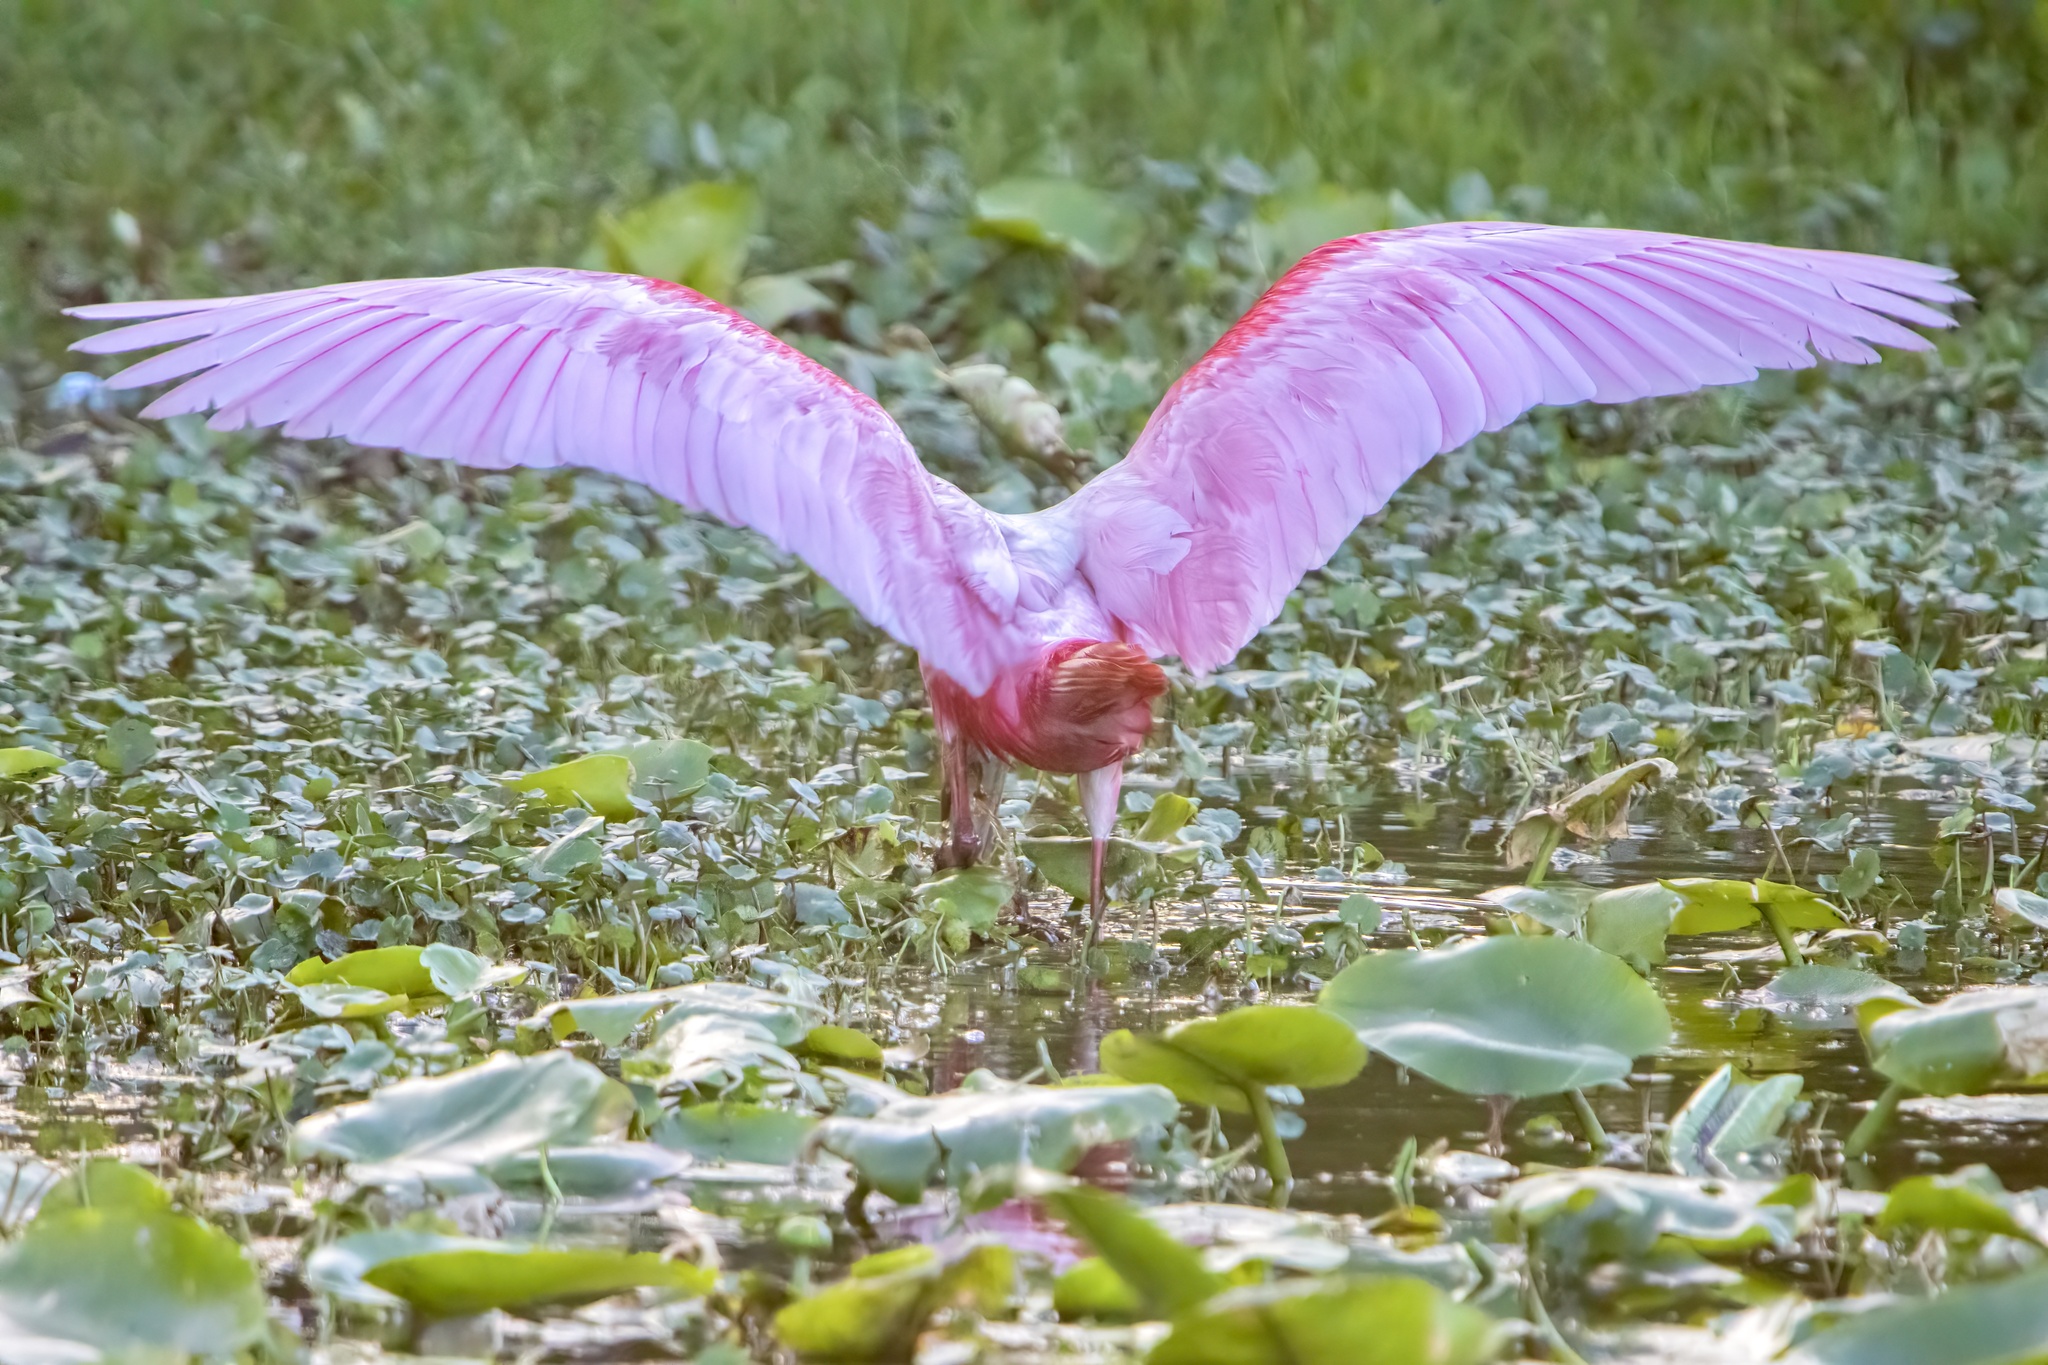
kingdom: Animalia
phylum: Chordata
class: Aves
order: Pelecaniformes
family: Threskiornithidae
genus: Platalea
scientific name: Platalea ajaja
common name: Roseate spoonbill
